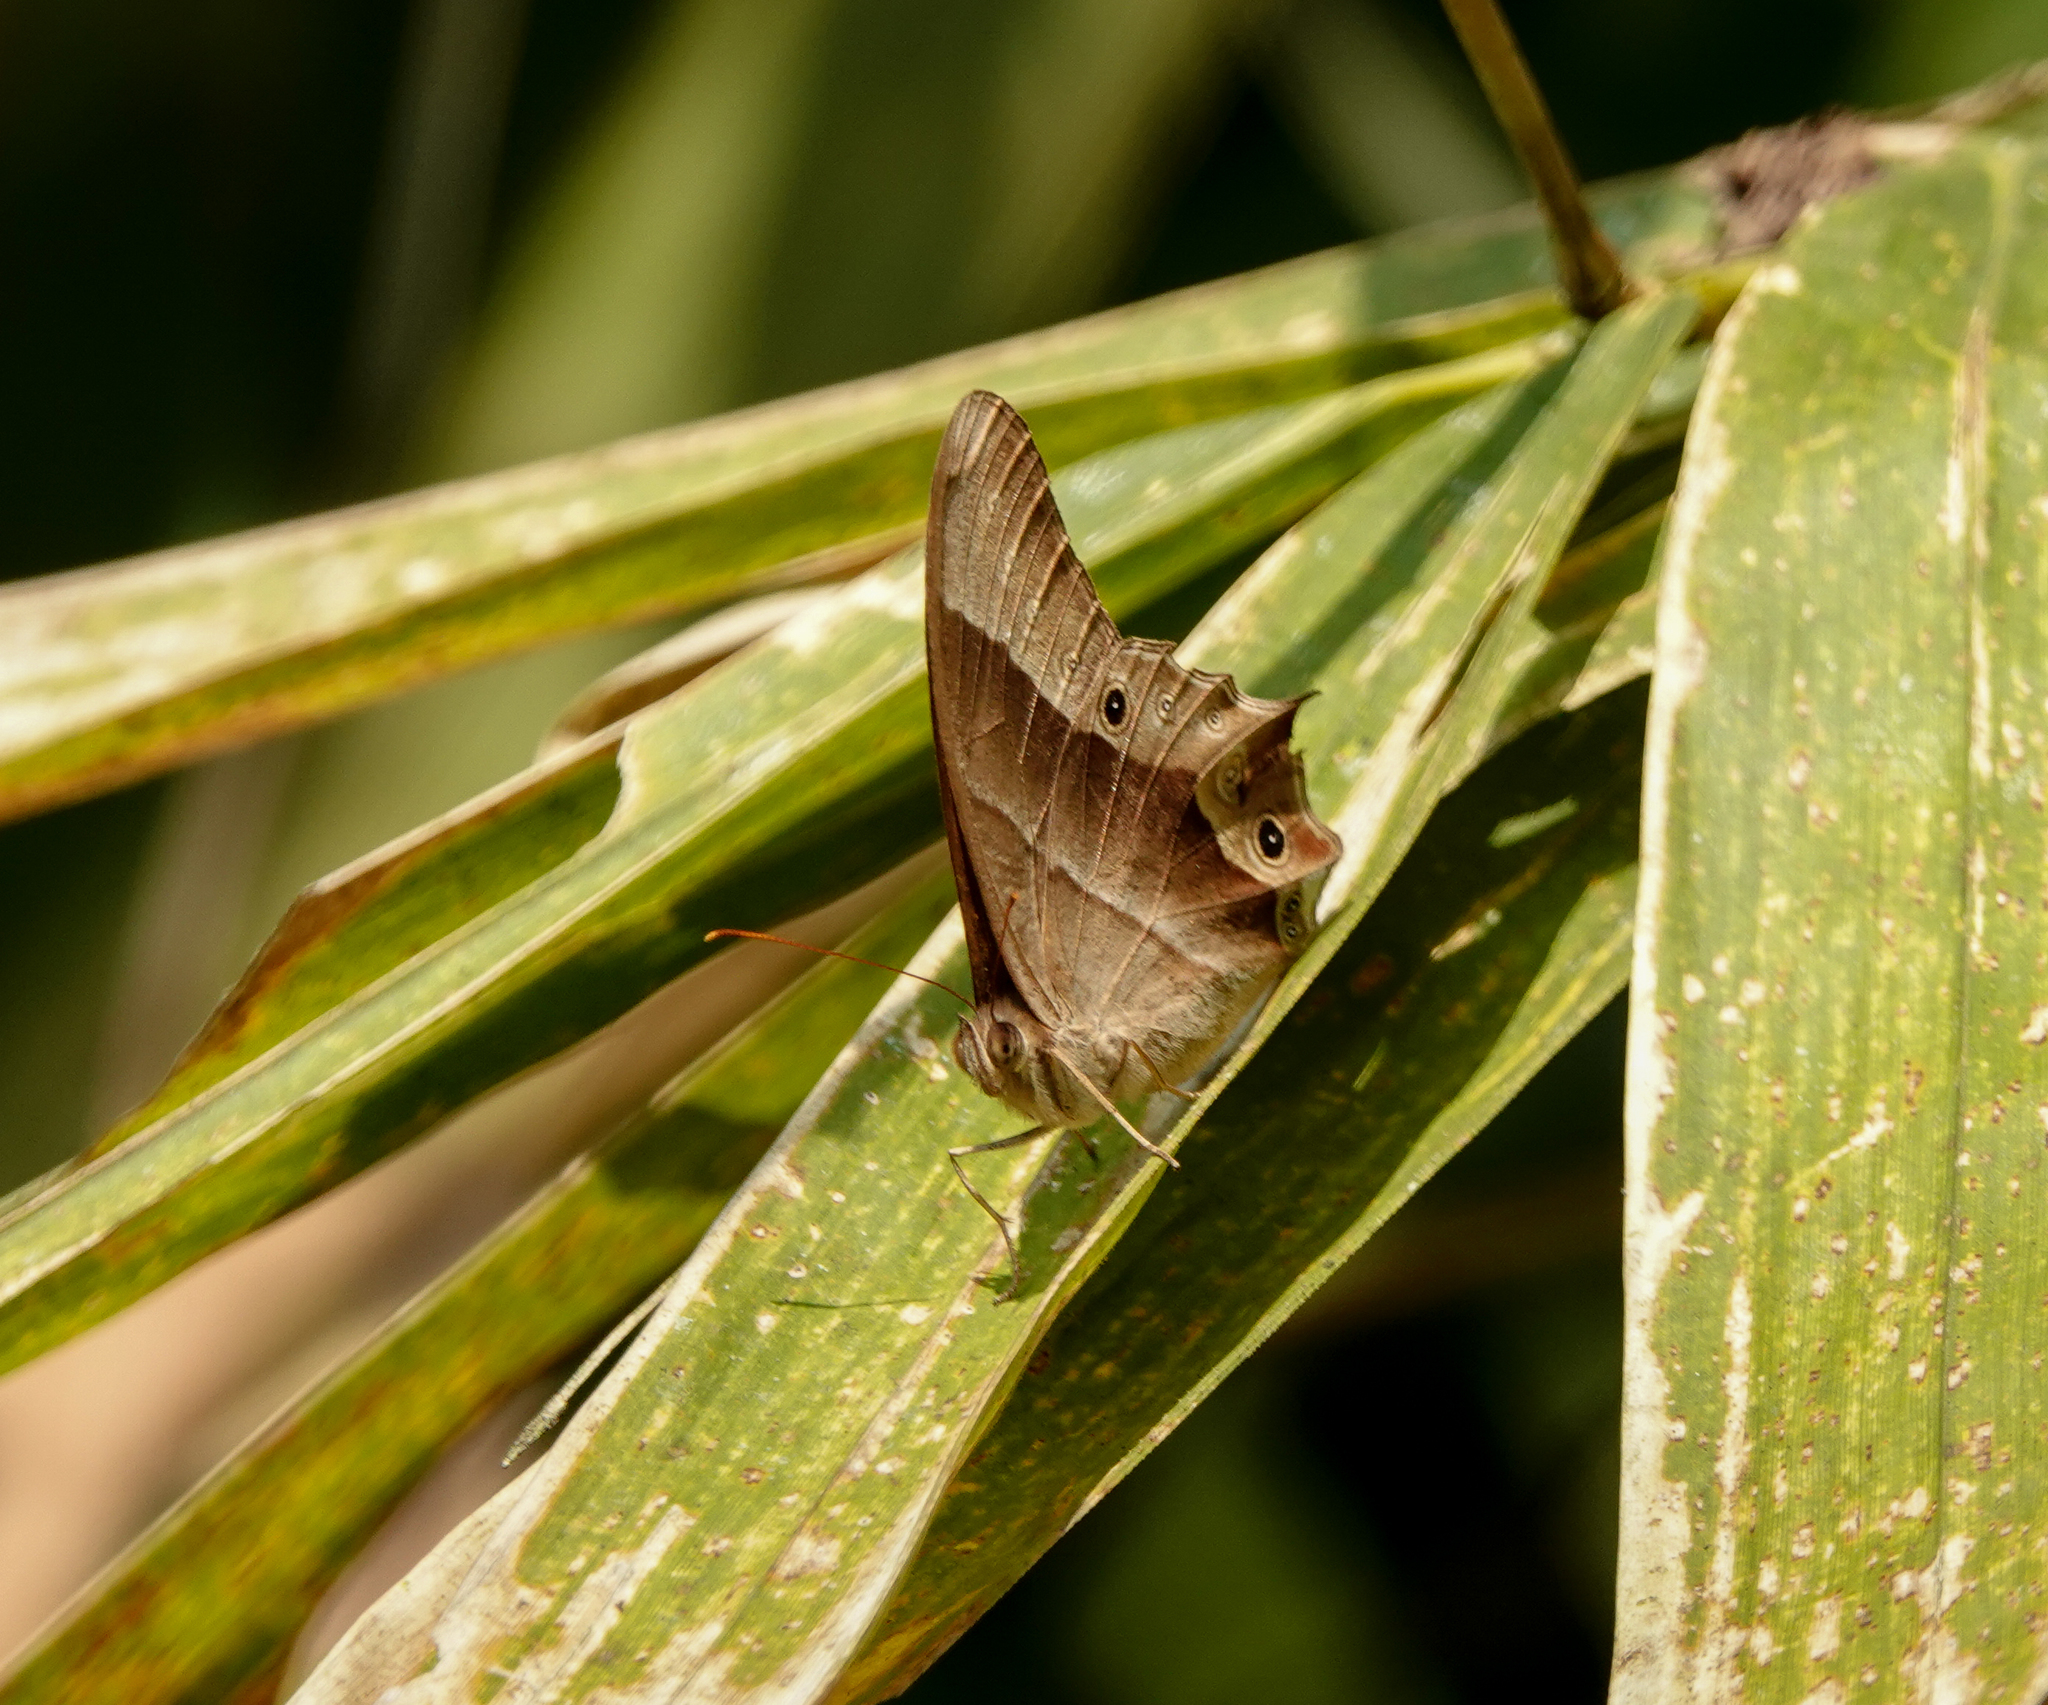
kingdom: Animalia
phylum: Arthropoda
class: Insecta
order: Lepidoptera
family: Nymphalidae
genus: Lethe
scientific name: Lethe chandica
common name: Angled red forester
